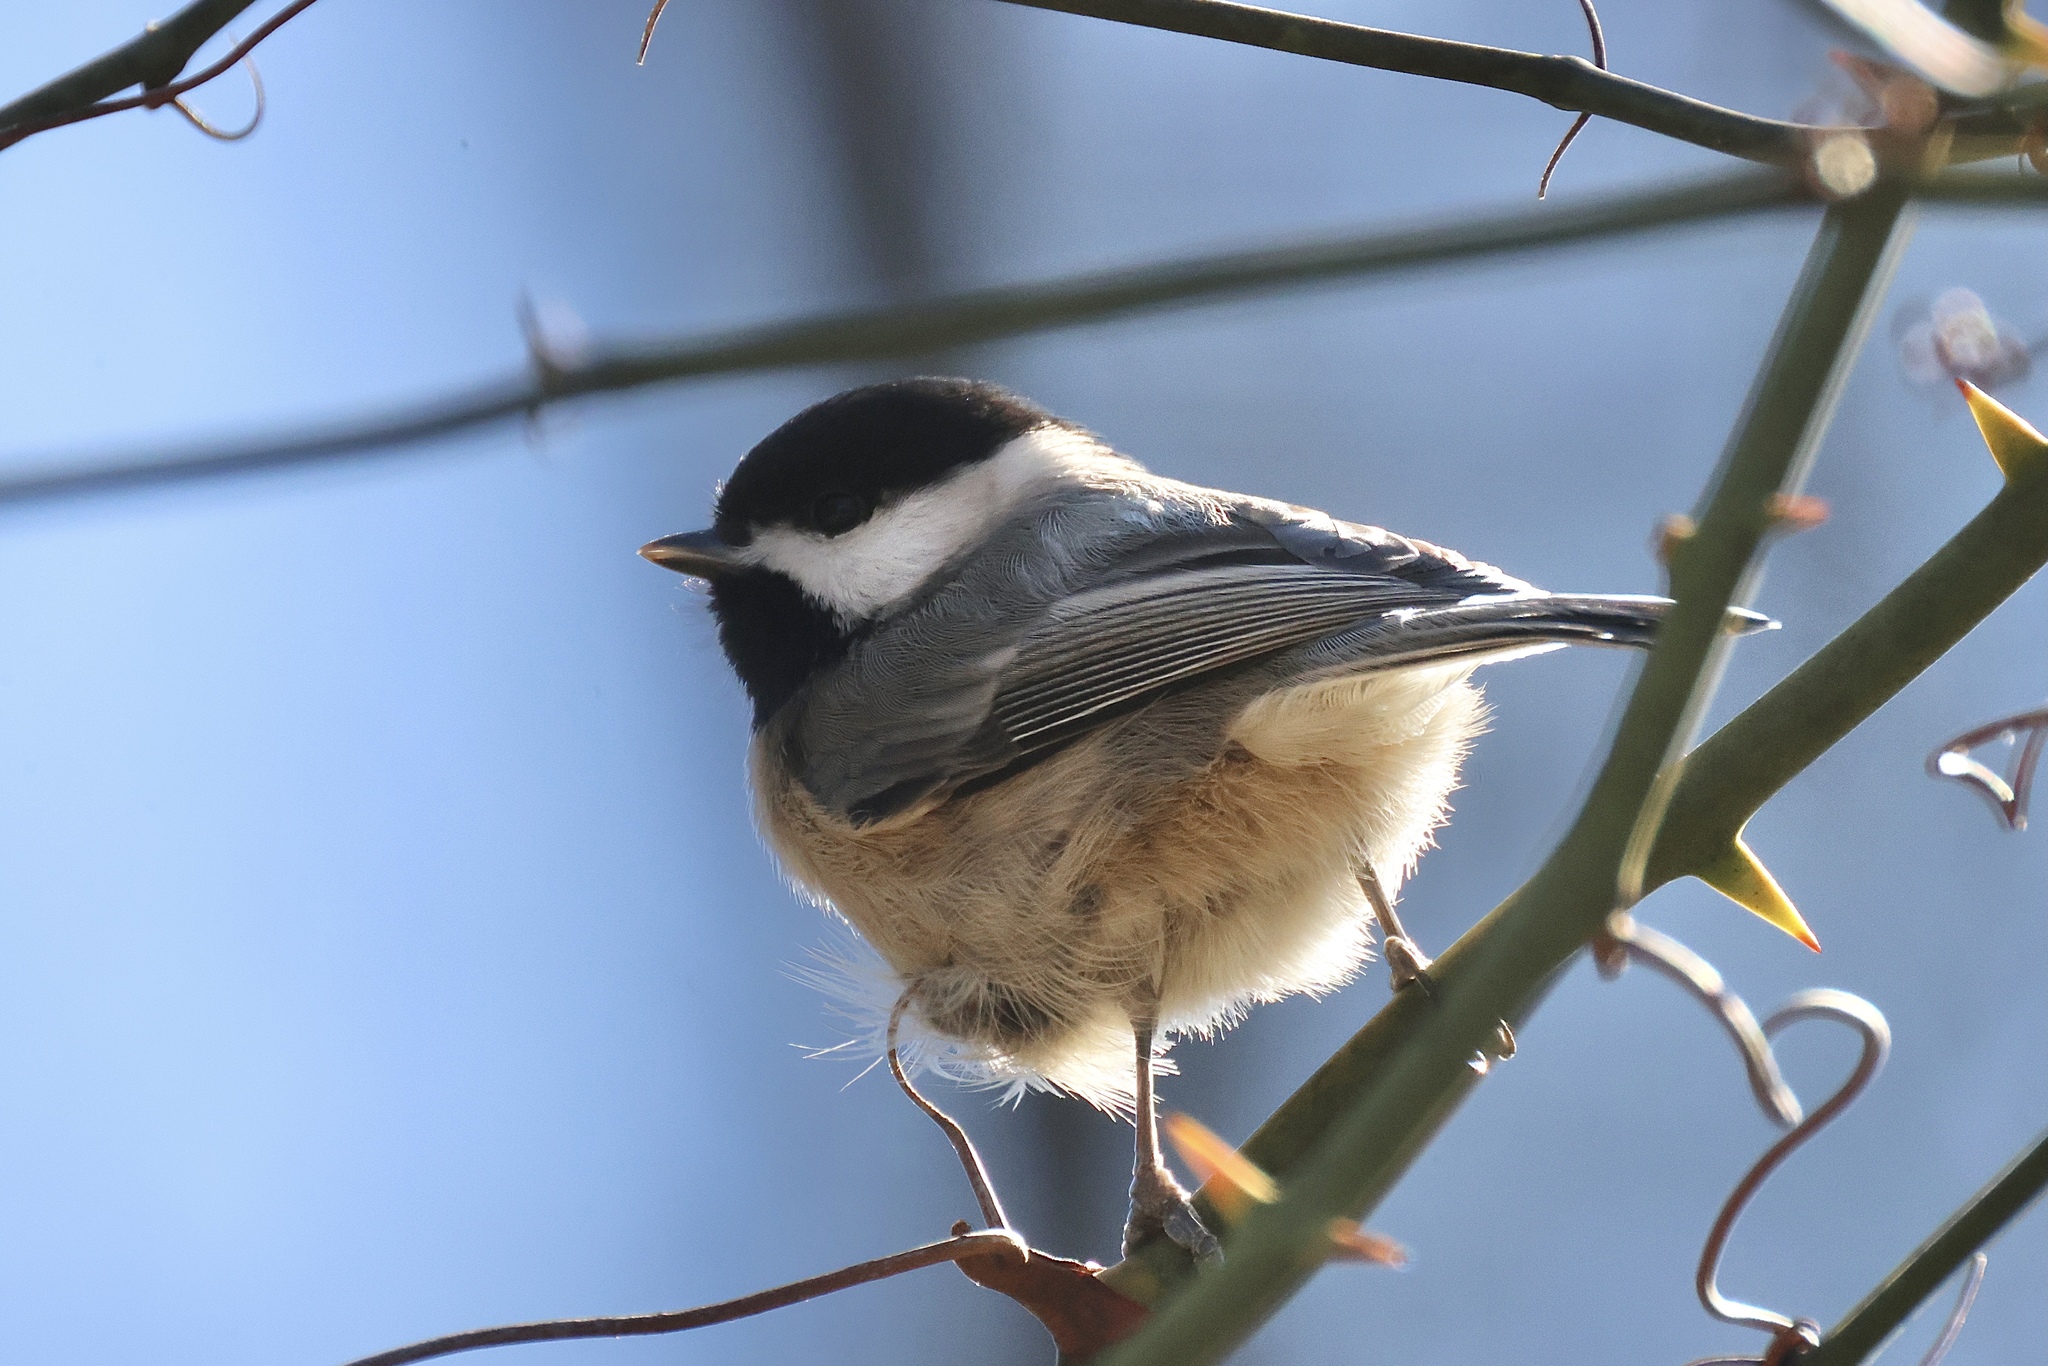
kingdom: Animalia
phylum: Chordata
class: Aves
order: Passeriformes
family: Paridae
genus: Poecile
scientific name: Poecile carolinensis
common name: Carolina chickadee
